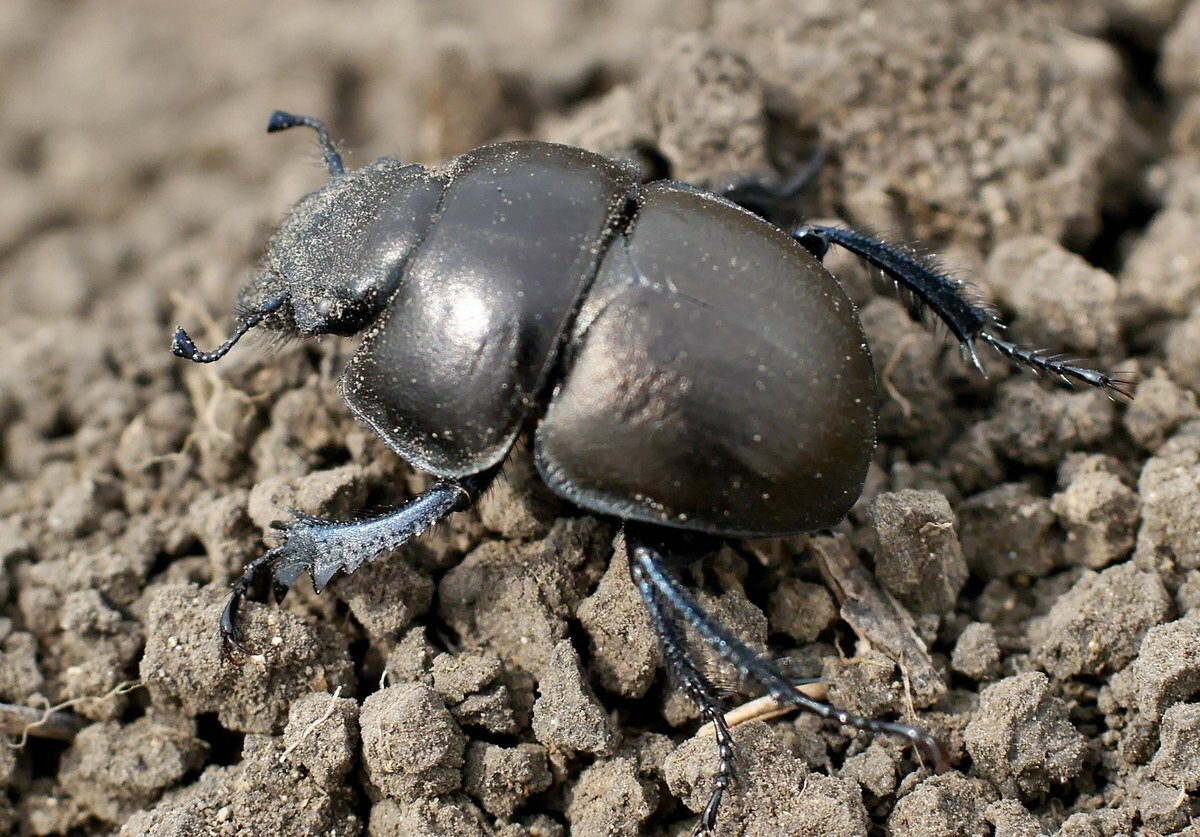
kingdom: Animalia
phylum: Arthropoda
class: Insecta
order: Coleoptera
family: Geotrupidae
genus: Lethrus
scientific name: Lethrus apterus
